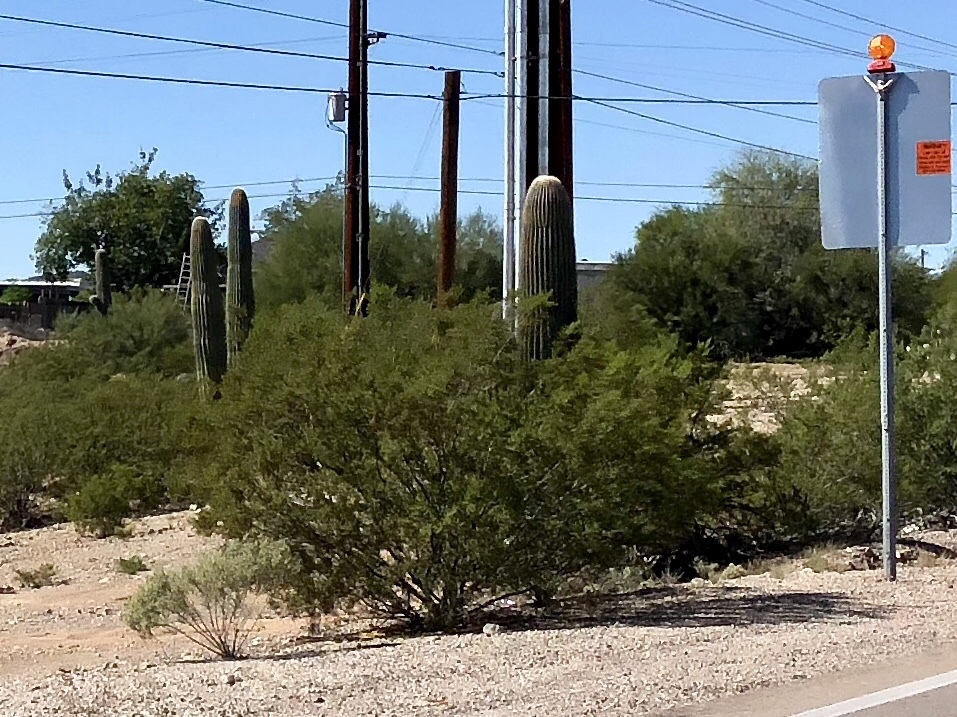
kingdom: Plantae
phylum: Tracheophyta
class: Magnoliopsida
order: Zygophyllales
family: Zygophyllaceae
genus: Larrea
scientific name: Larrea tridentata
